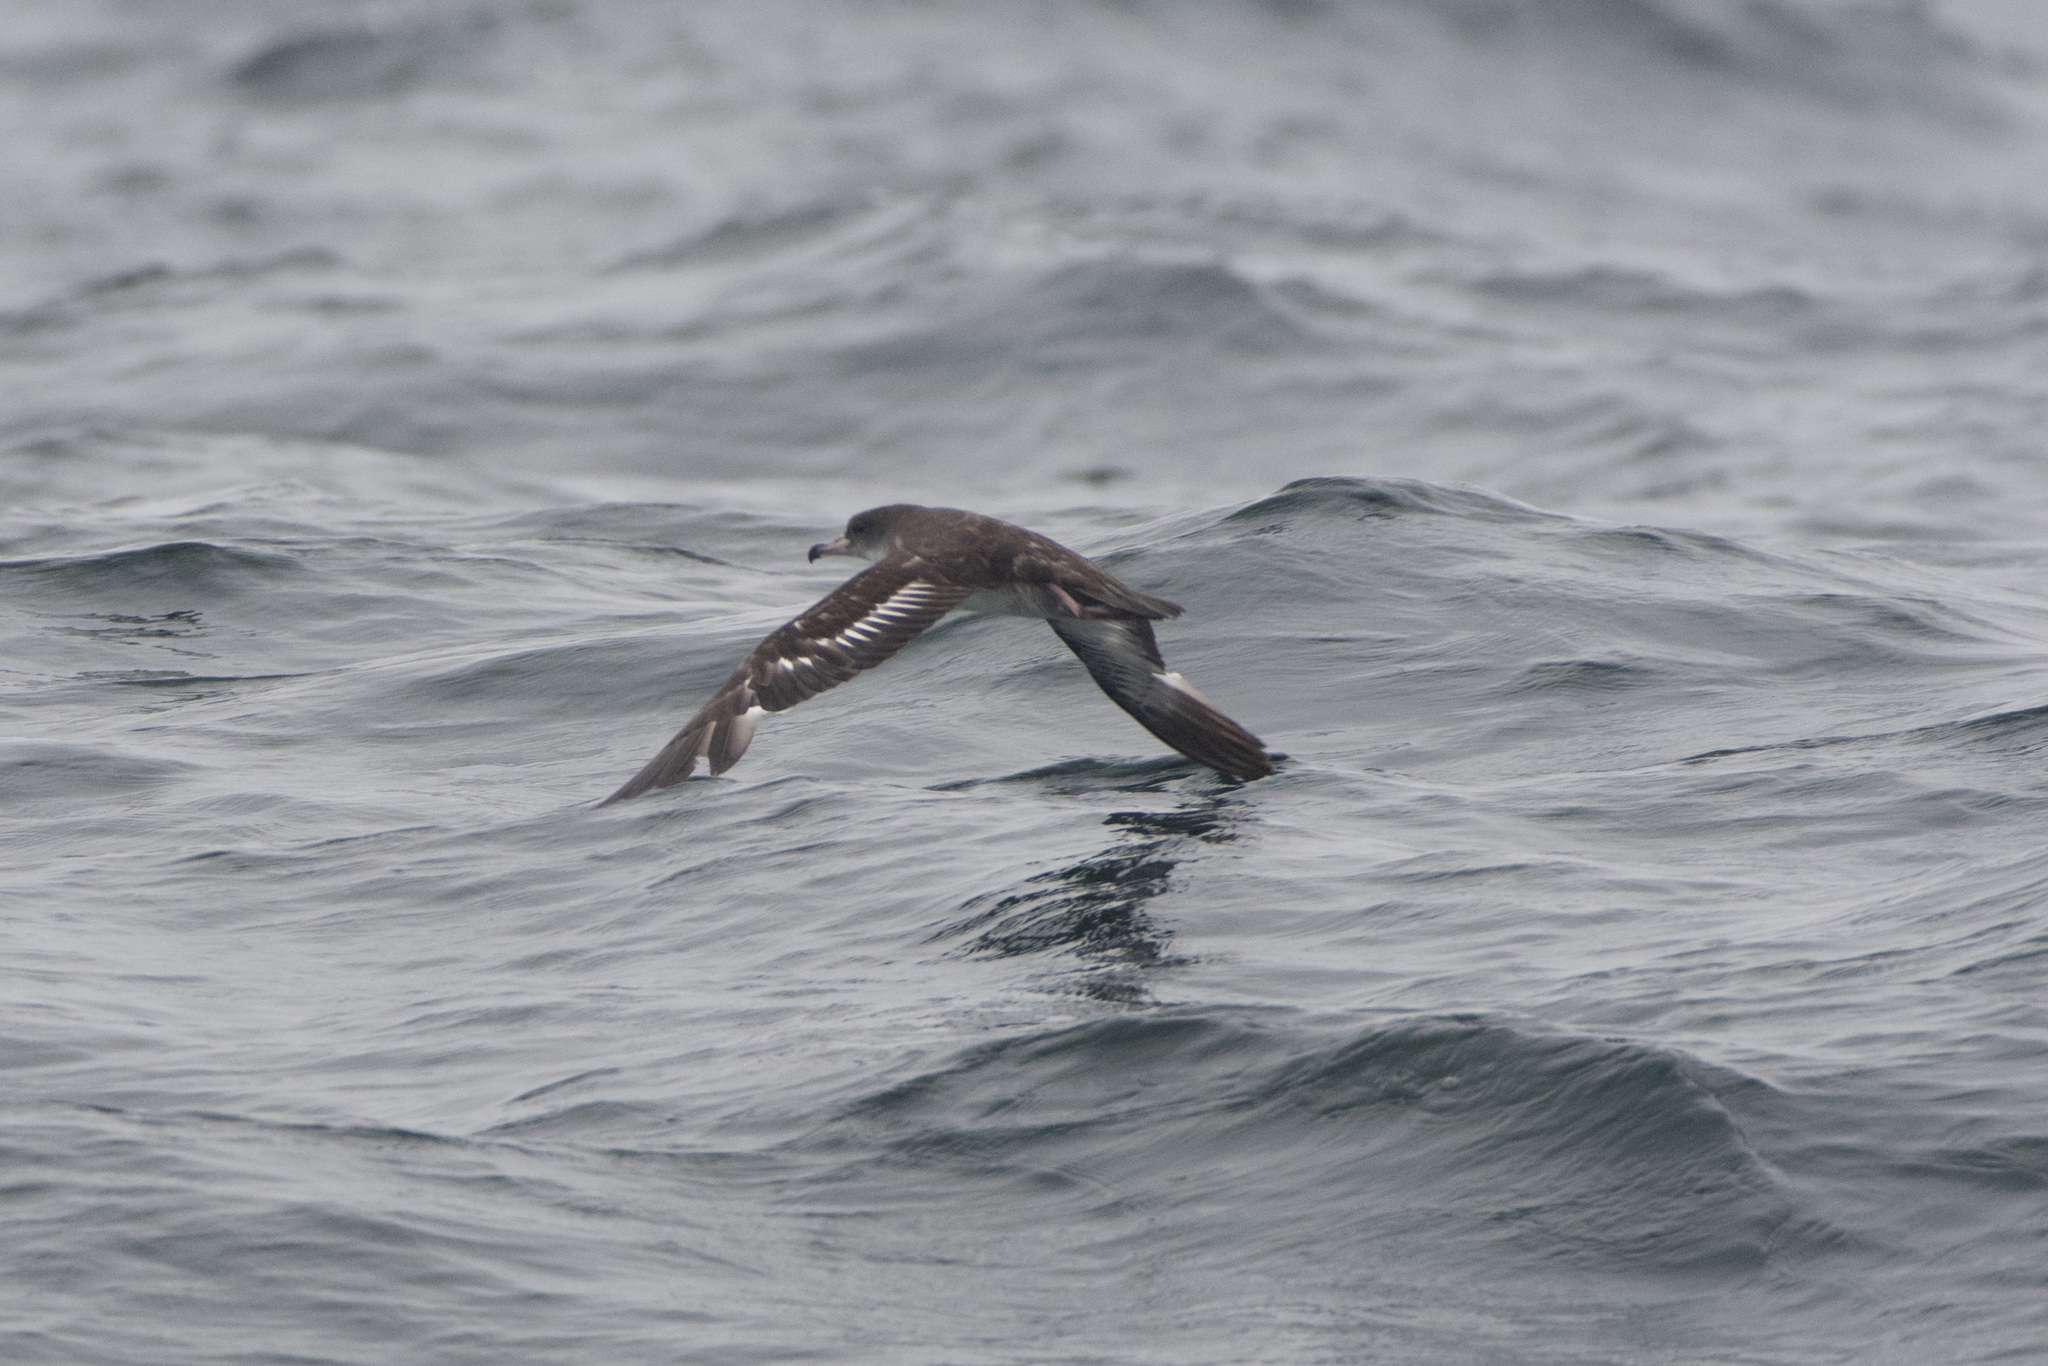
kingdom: Animalia
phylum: Chordata
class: Aves
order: Procellariiformes
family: Procellariidae
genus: Puffinus
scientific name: Puffinus creatopus
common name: Pink-footed shearwater
